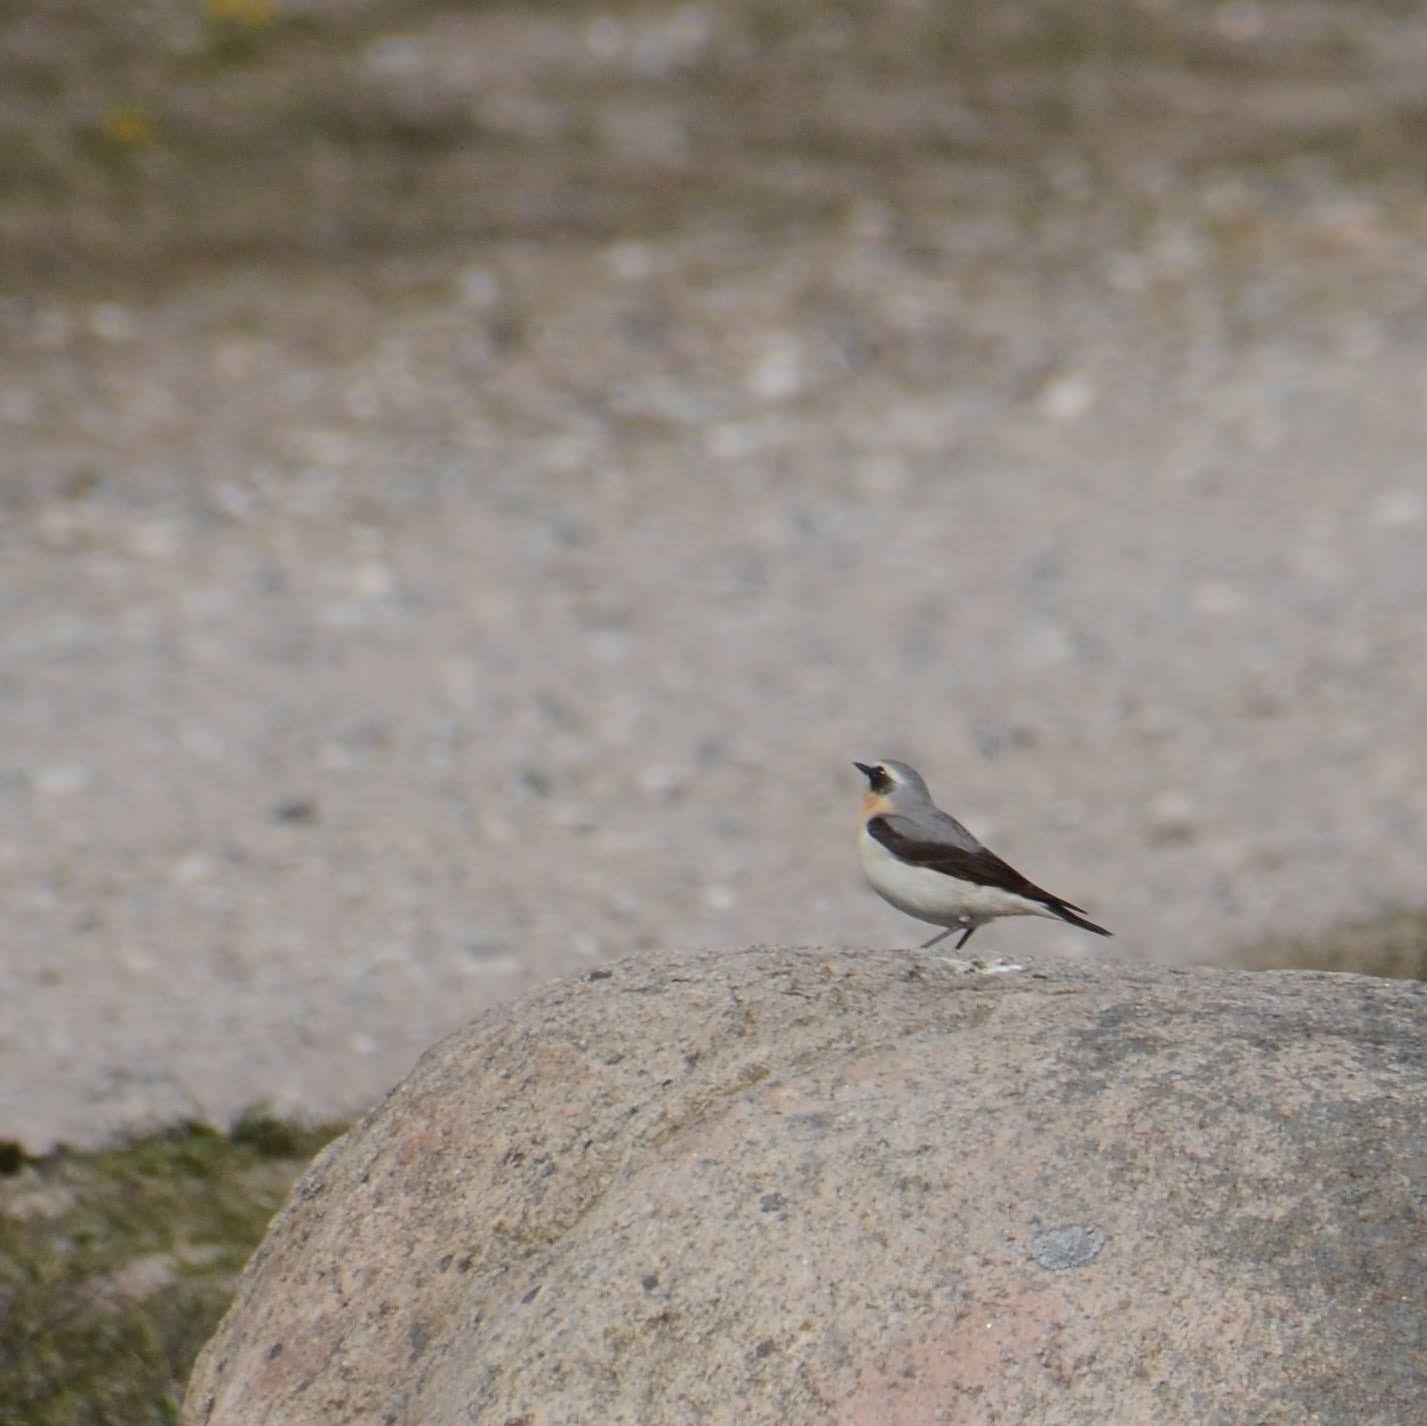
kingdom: Animalia
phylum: Chordata
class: Aves
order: Passeriformes
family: Muscicapidae
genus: Oenanthe
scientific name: Oenanthe oenanthe
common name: Northern wheatear
